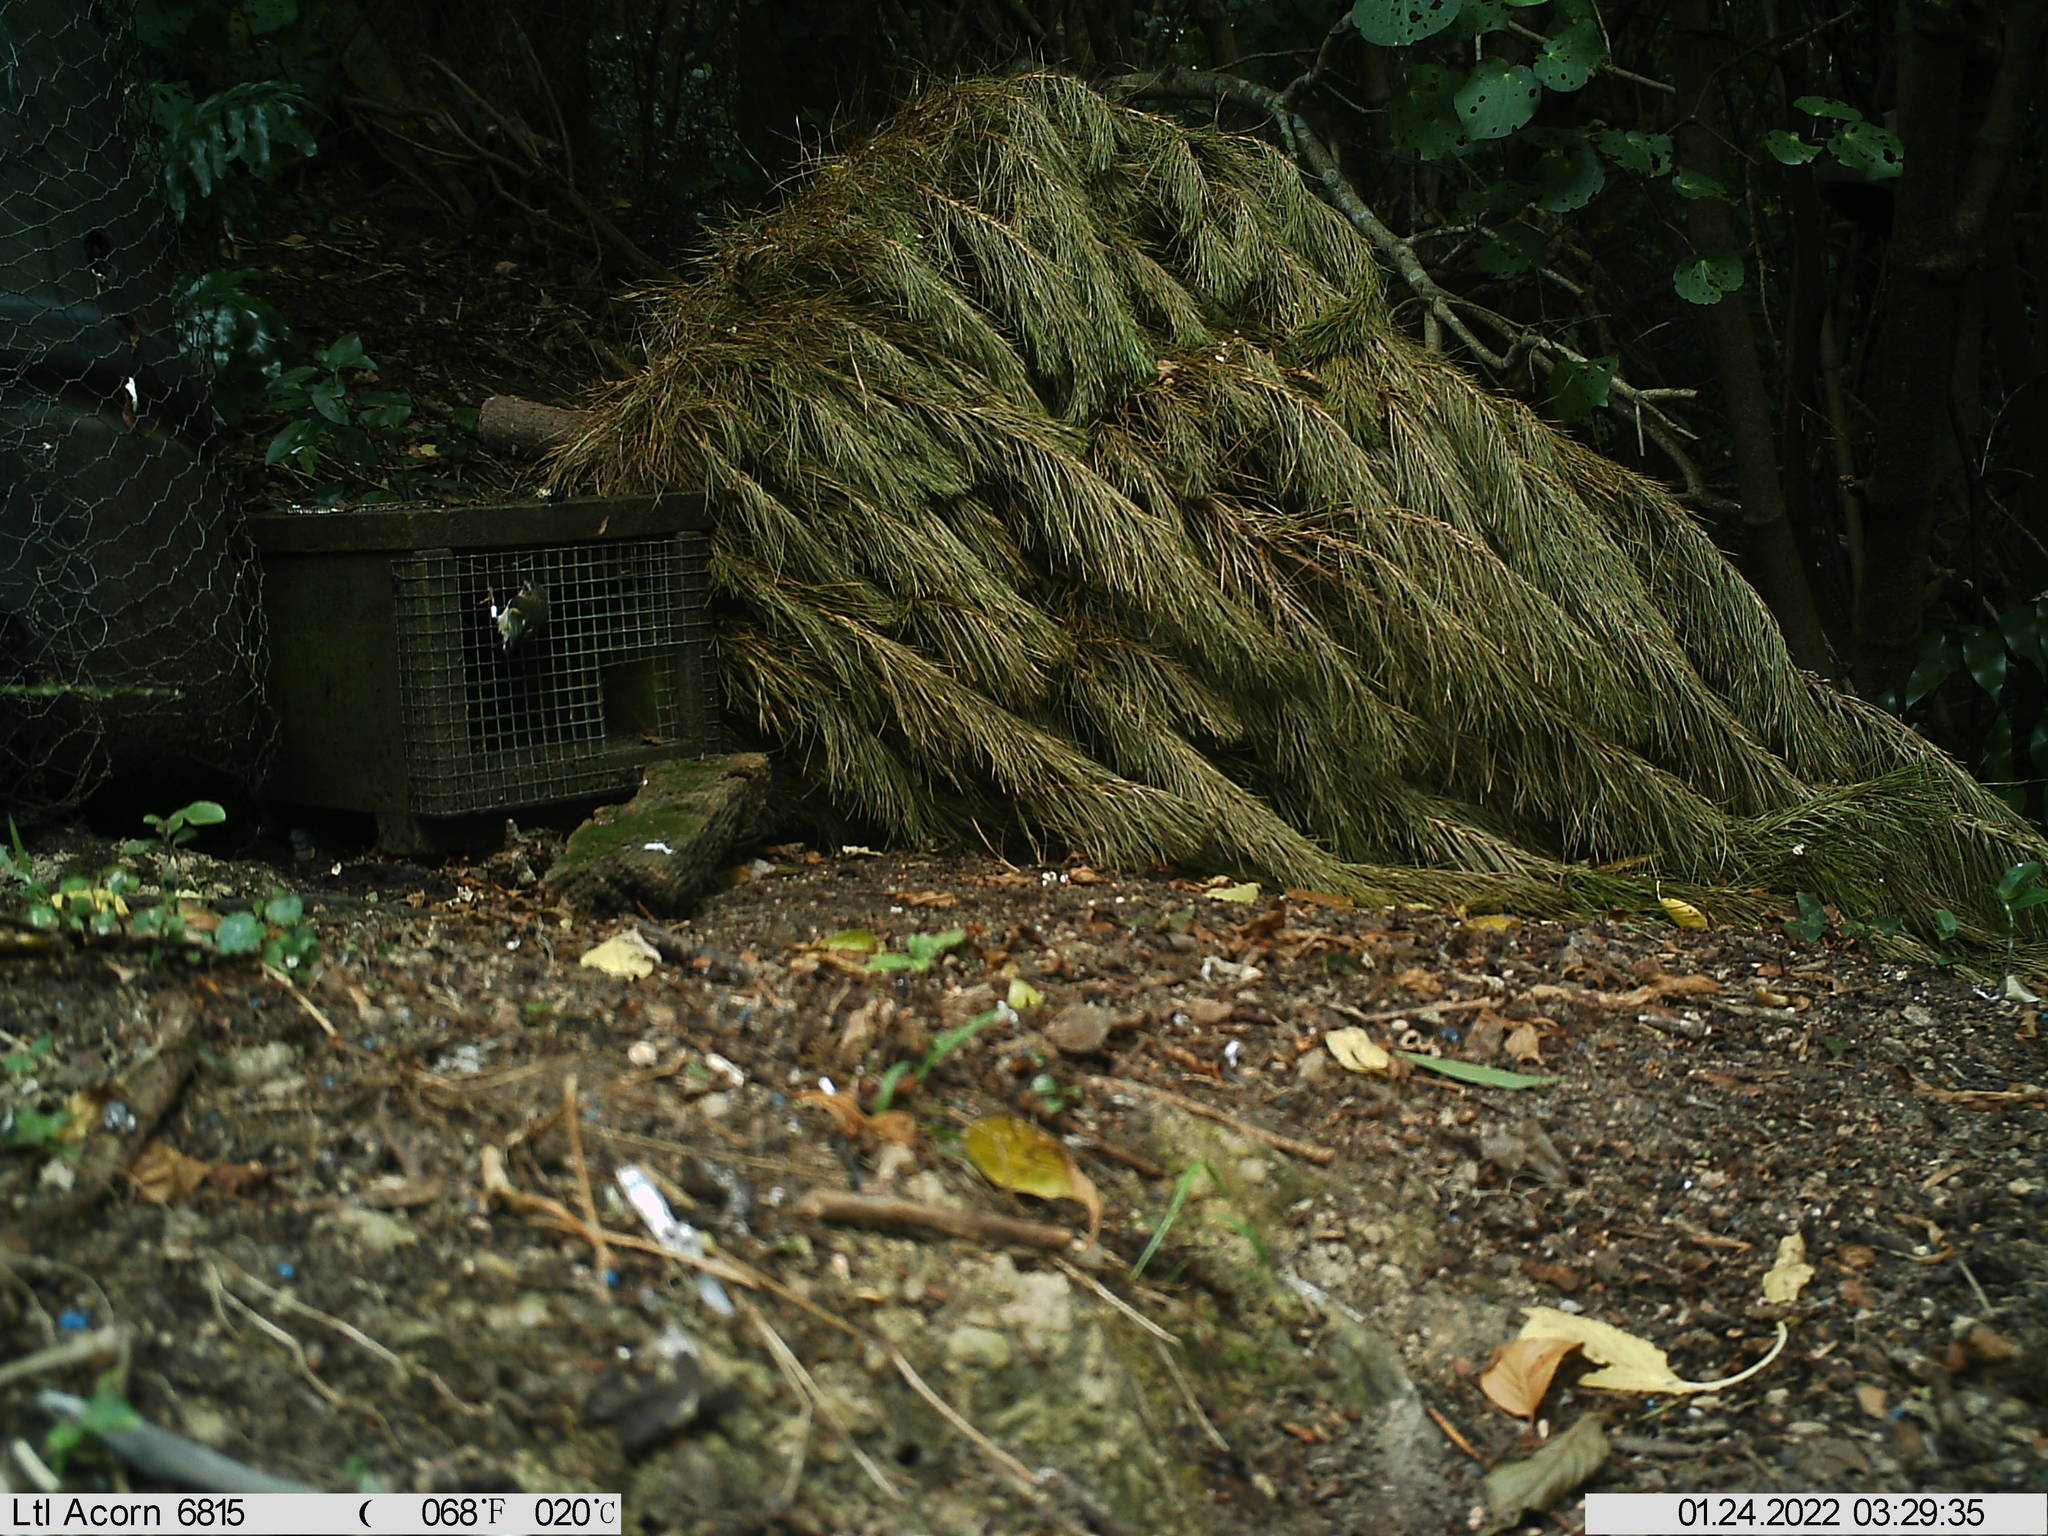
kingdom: Animalia
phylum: Chordata
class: Aves
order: Passeriformes
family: Acanthisittidae
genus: Acanthisitta
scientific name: Acanthisitta chloris
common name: Rifleman
